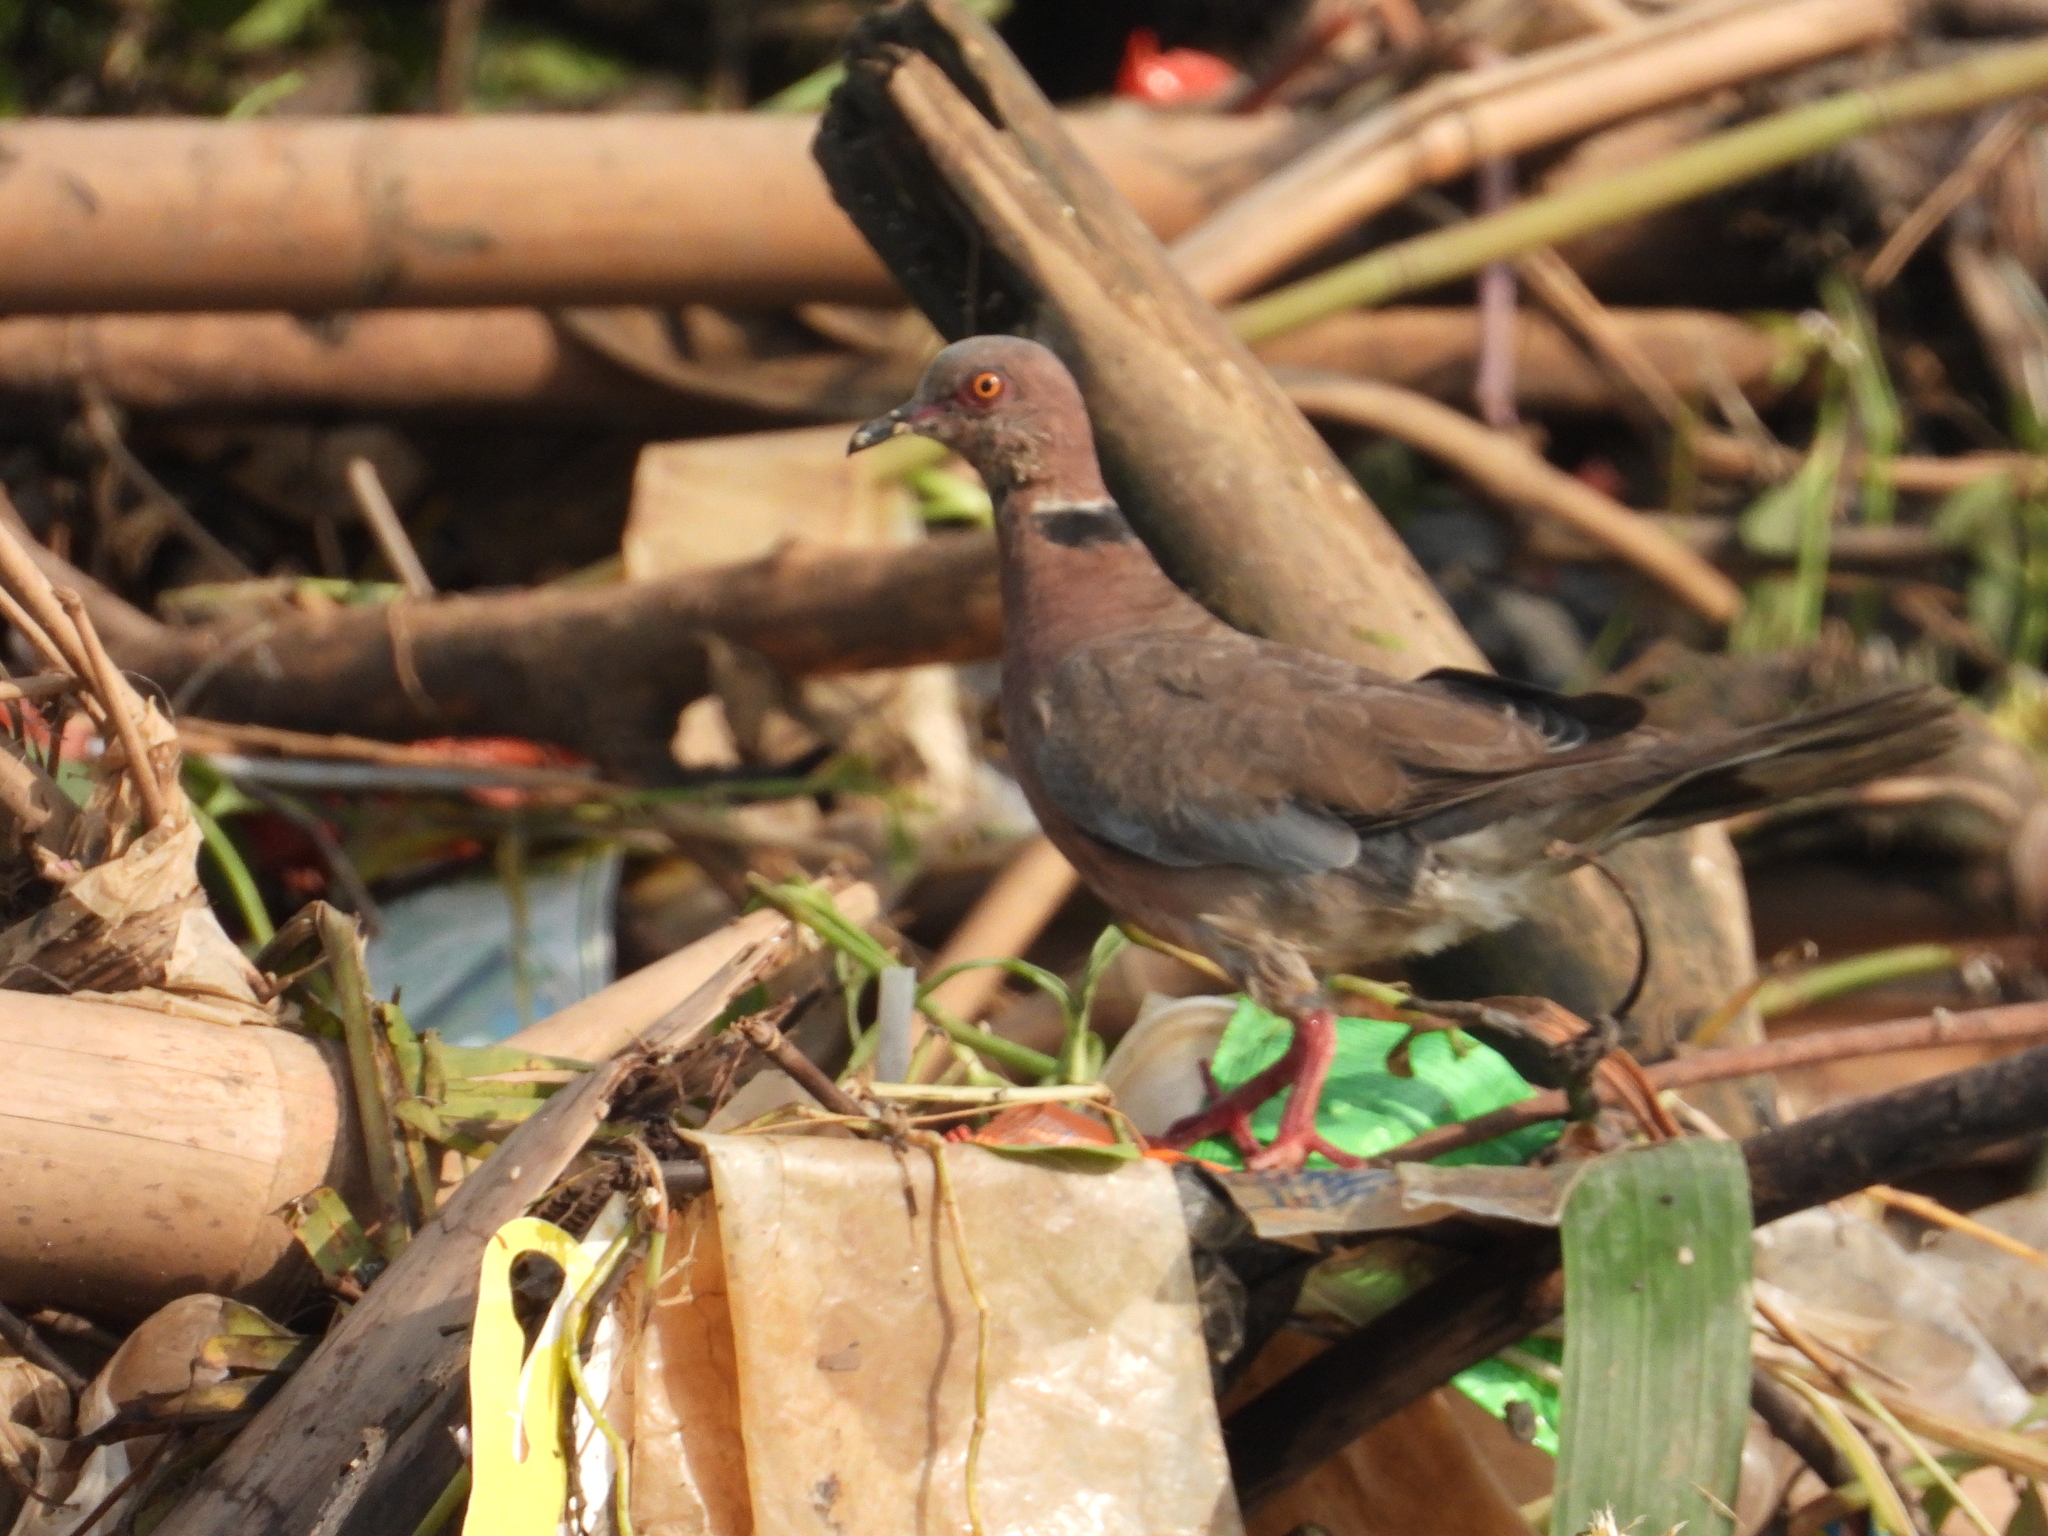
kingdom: Animalia
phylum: Chordata
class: Aves
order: Columbiformes
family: Columbidae
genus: Streptopelia
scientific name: Streptopelia bitorquata
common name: Island collared dove
